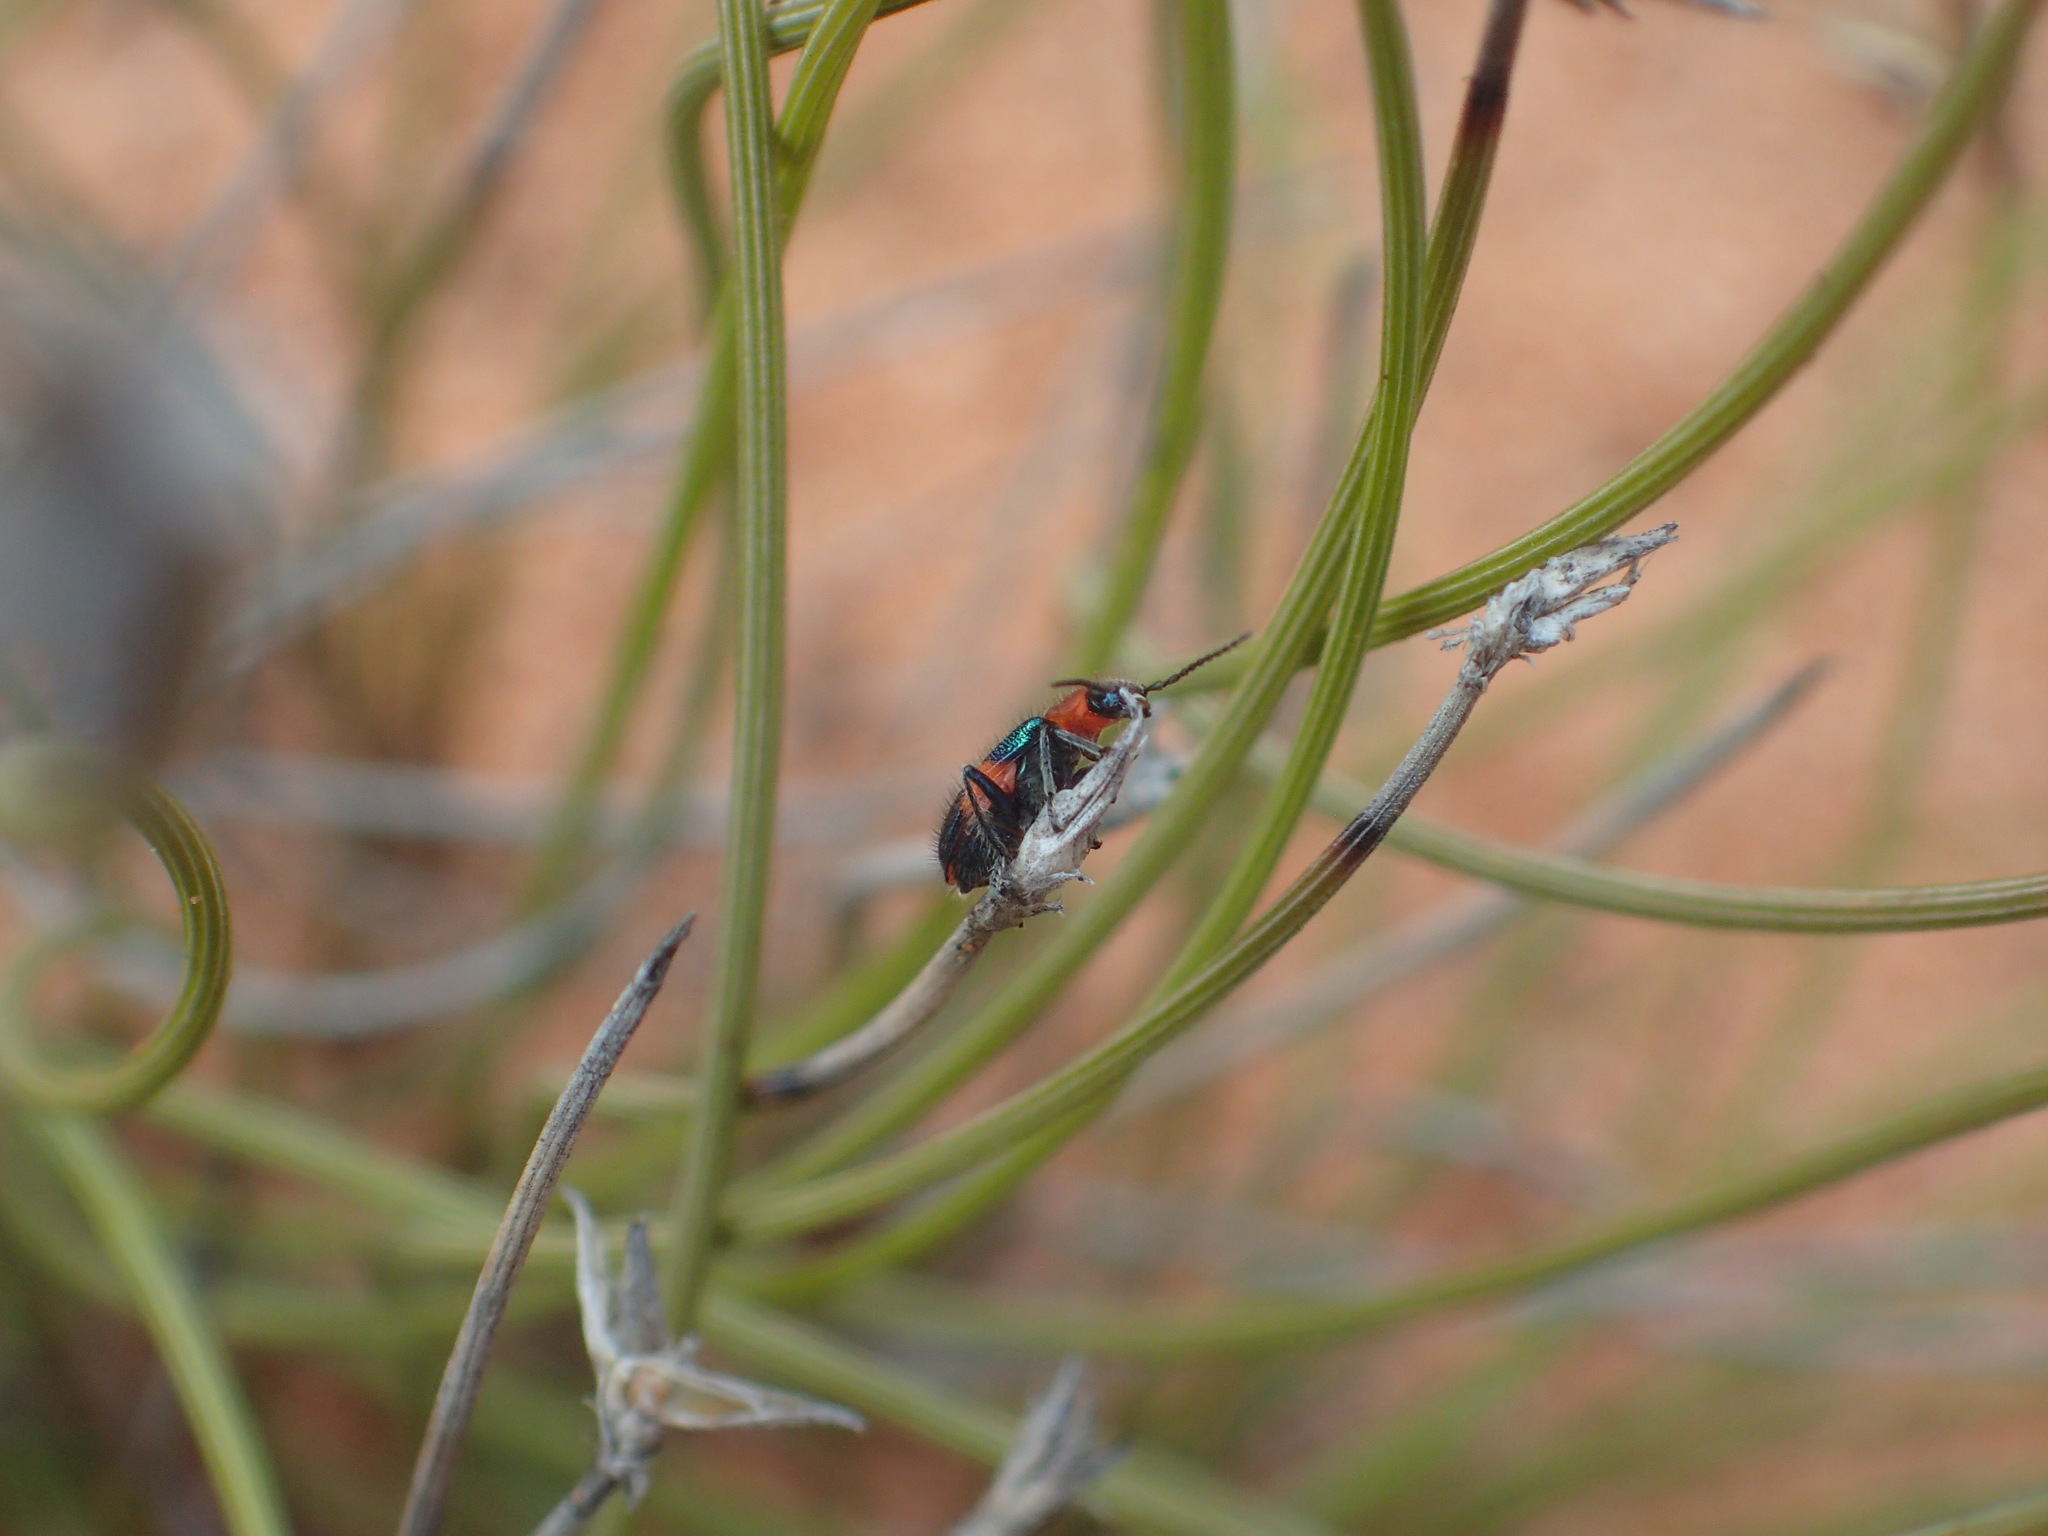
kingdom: Animalia
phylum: Arthropoda
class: Insecta
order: Coleoptera
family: Melyridae
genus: Dicranolaius
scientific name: Dicranolaius bellulus
